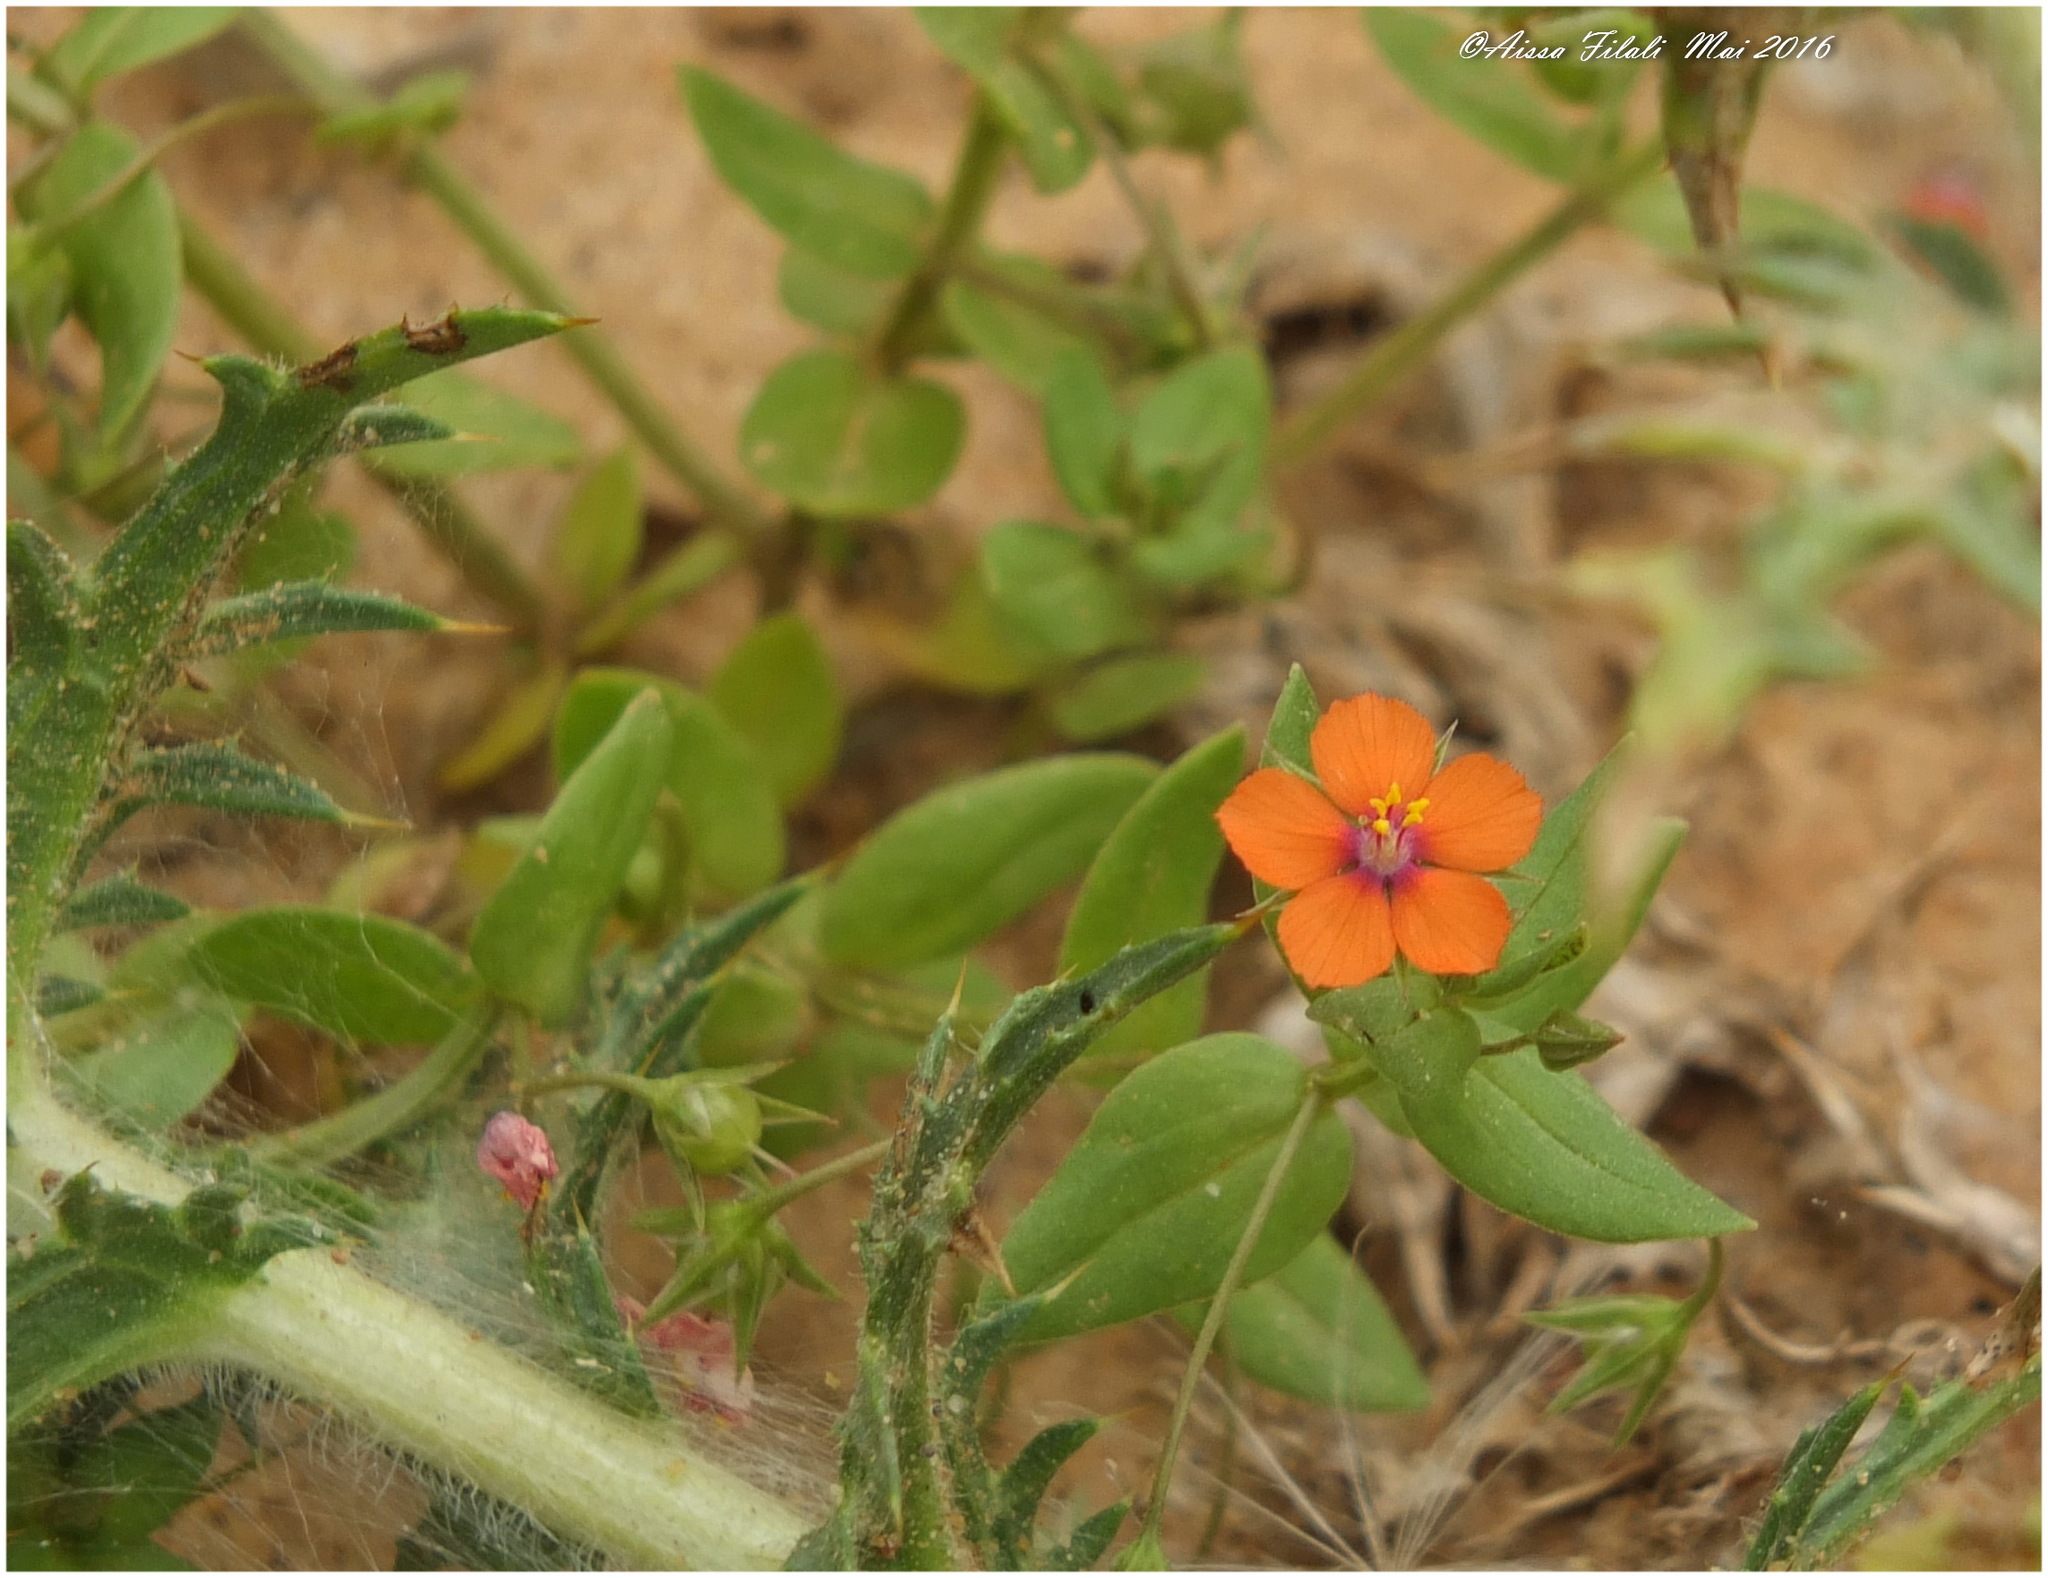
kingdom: Plantae
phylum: Tracheophyta
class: Magnoliopsida
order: Ericales
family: Primulaceae
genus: Lysimachia
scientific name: Lysimachia arvensis
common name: Scarlet pimpernel
